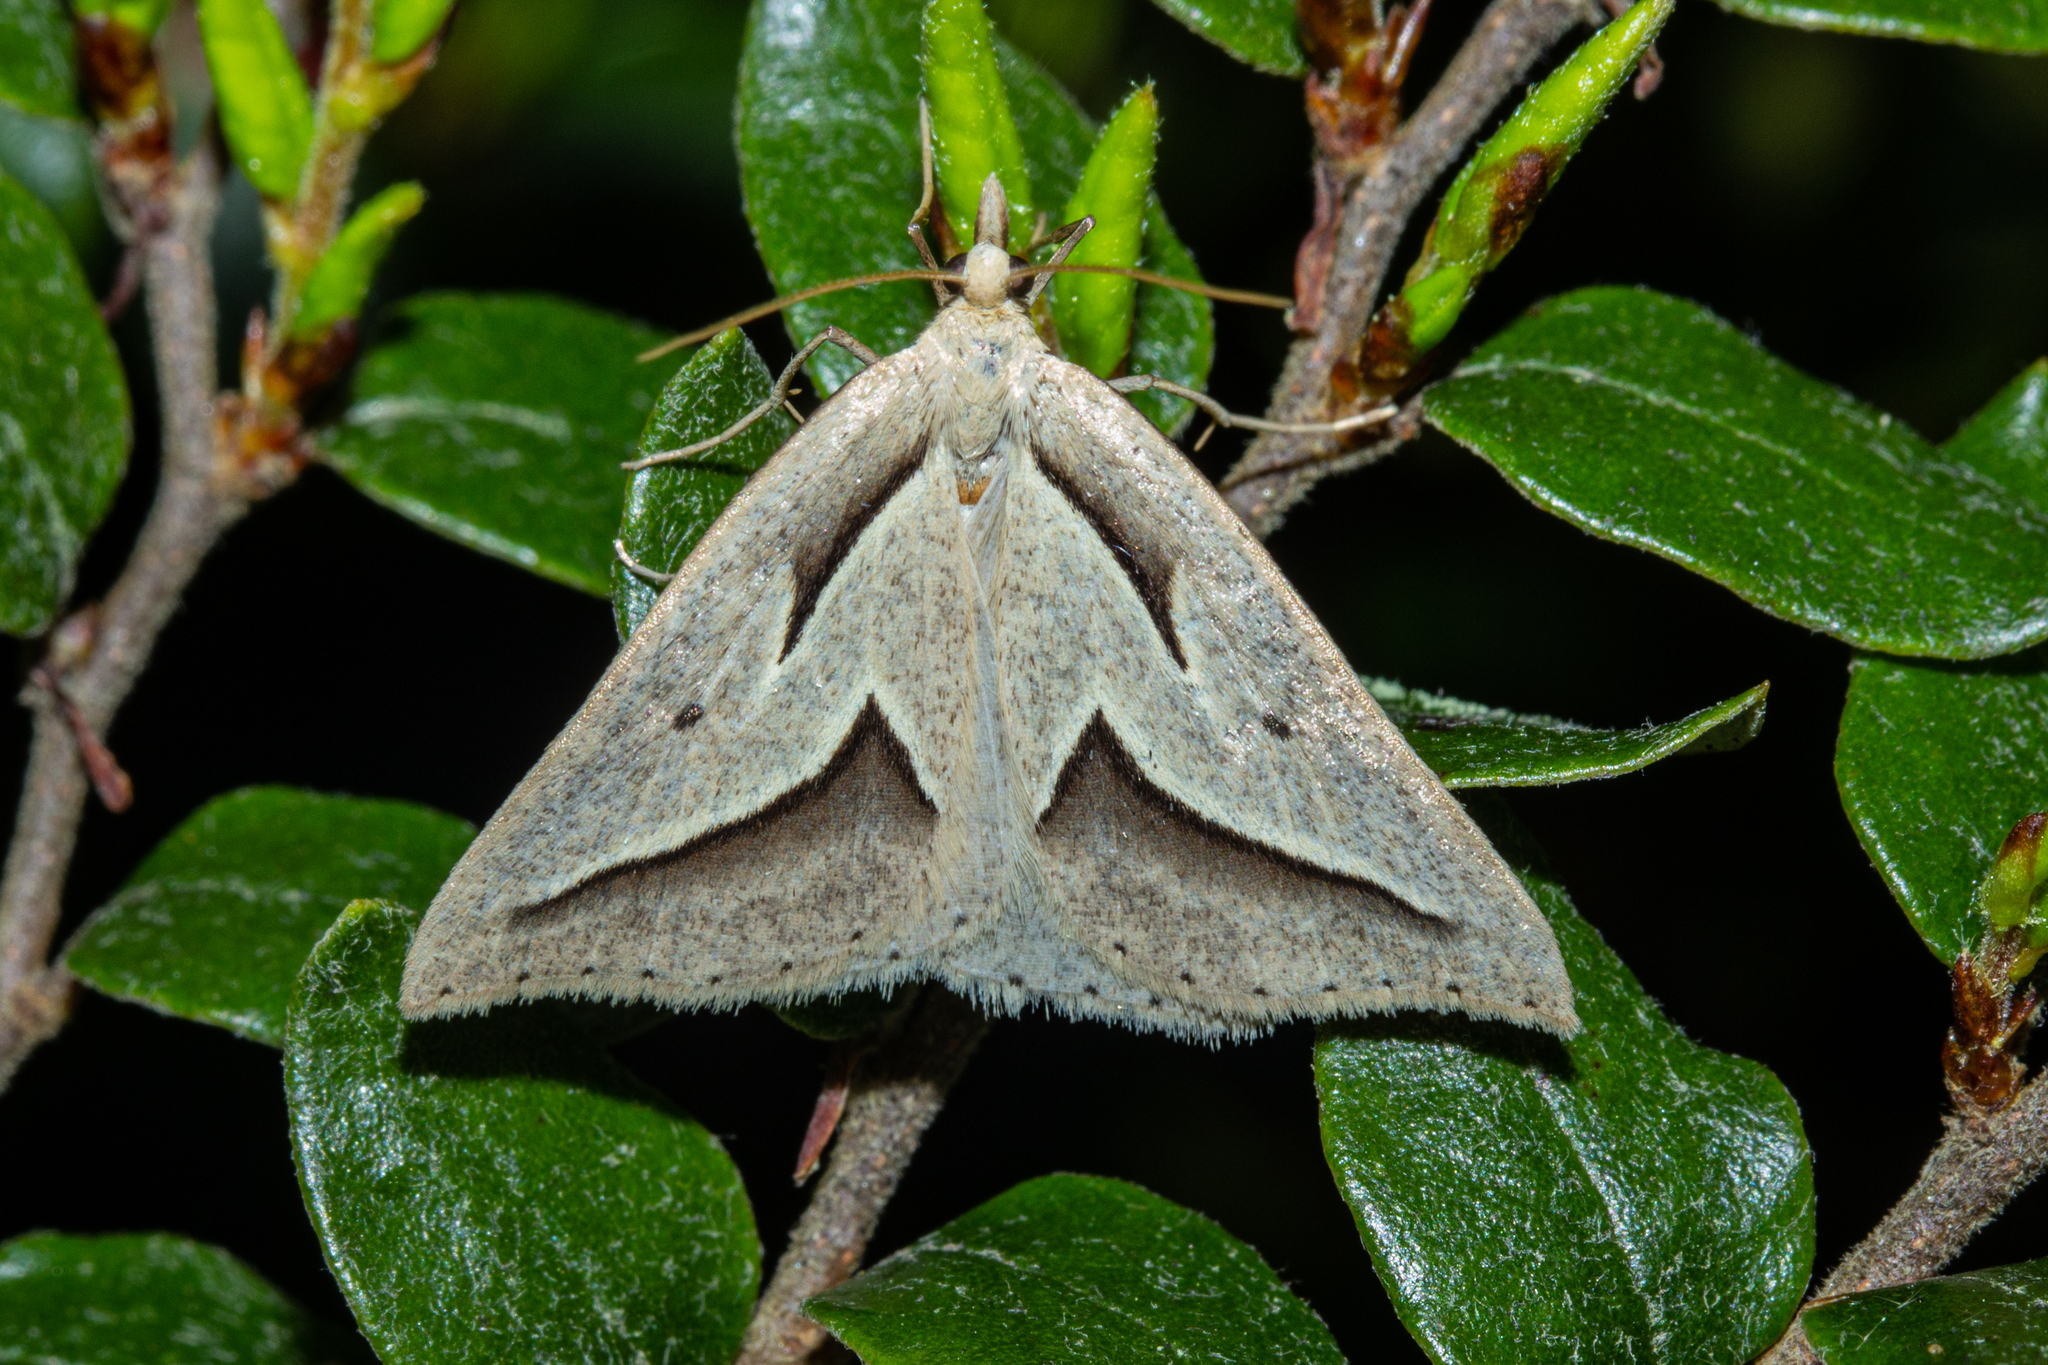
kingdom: Animalia
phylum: Arthropoda
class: Insecta
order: Lepidoptera
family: Geometridae
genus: Samana
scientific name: Samana acutata
